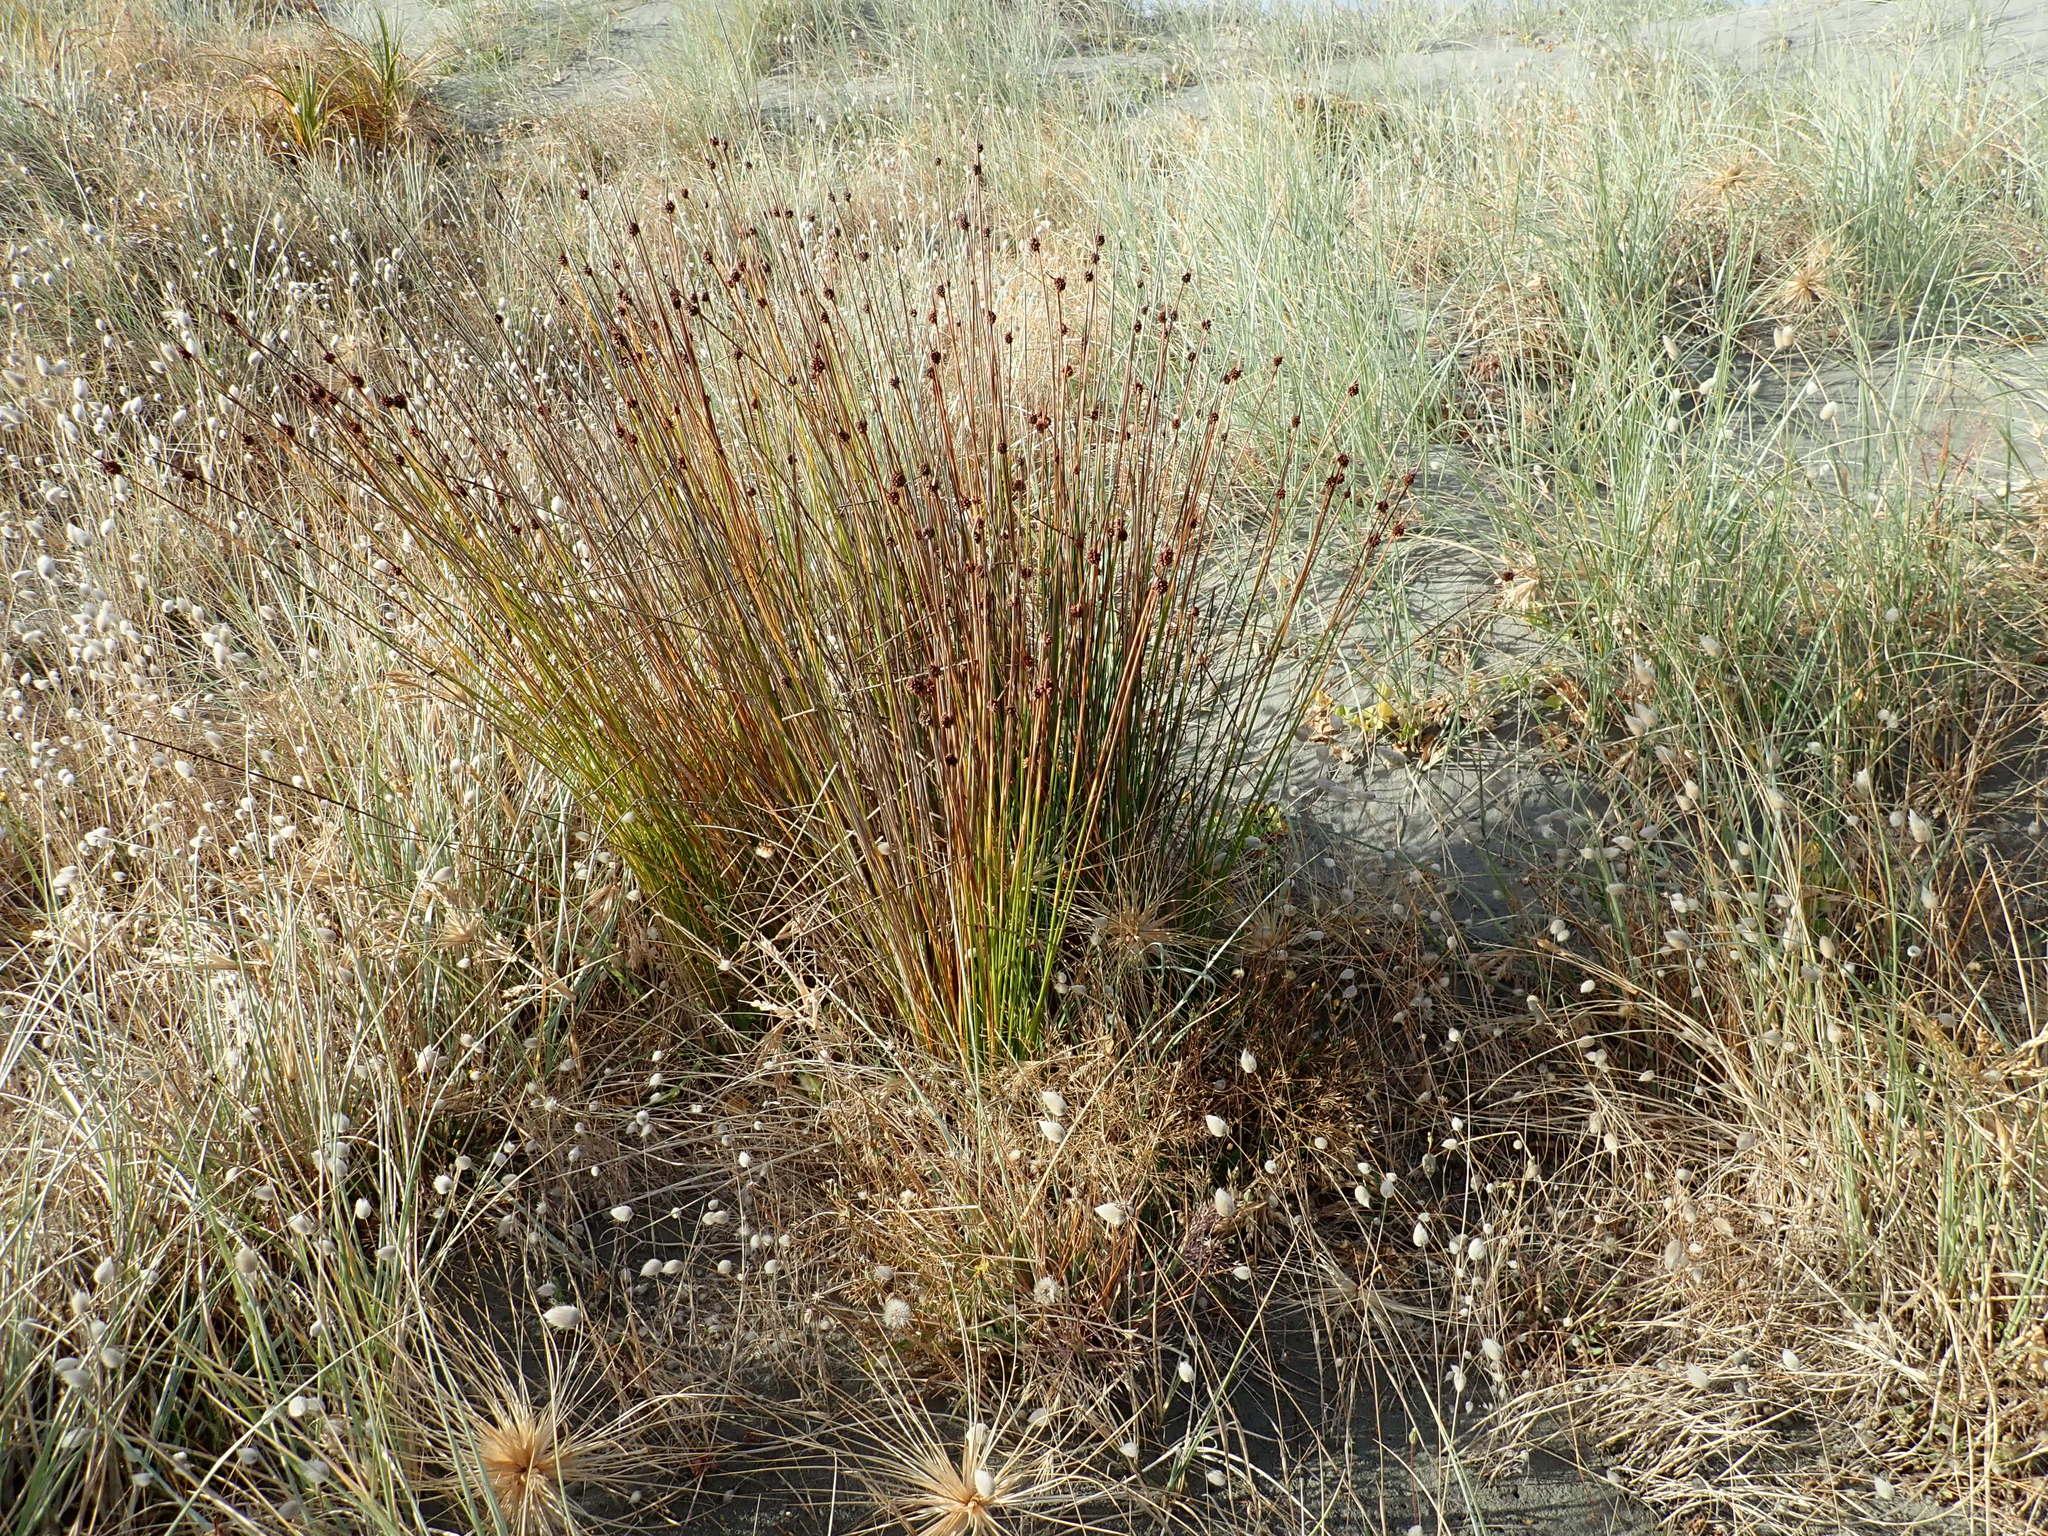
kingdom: Plantae
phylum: Tracheophyta
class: Liliopsida
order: Poales
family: Cyperaceae
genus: Ficinia
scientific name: Ficinia nodosa
